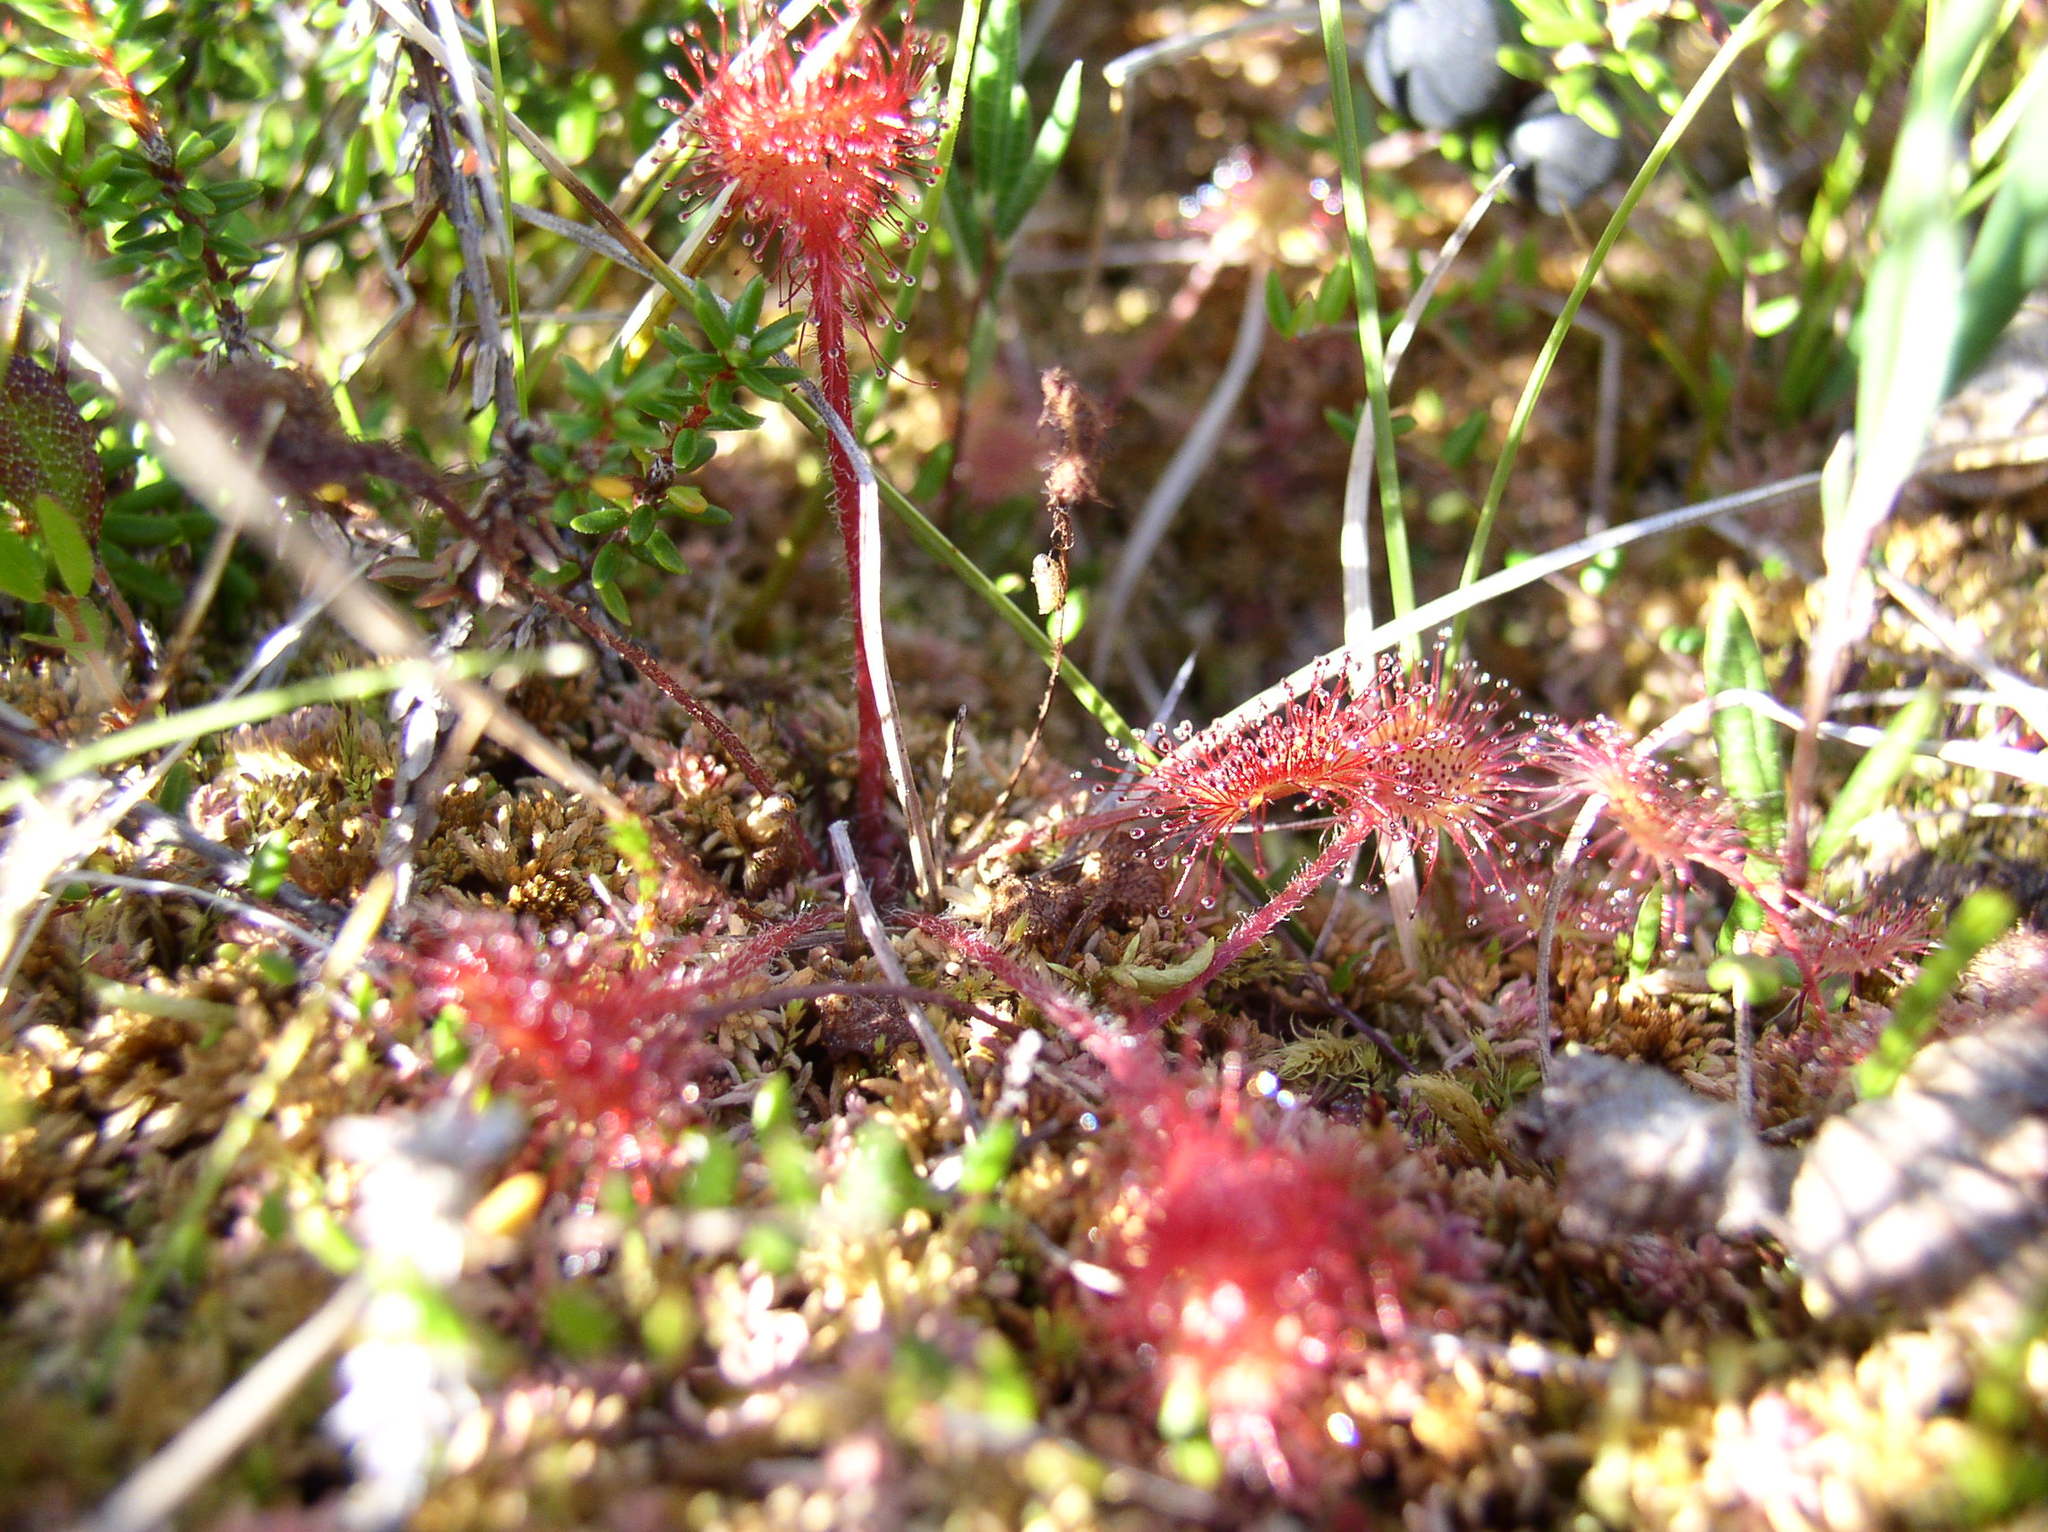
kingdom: Plantae
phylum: Tracheophyta
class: Magnoliopsida
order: Caryophyllales
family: Droseraceae
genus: Drosera
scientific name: Drosera rotundifolia
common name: Round-leaved sundew
